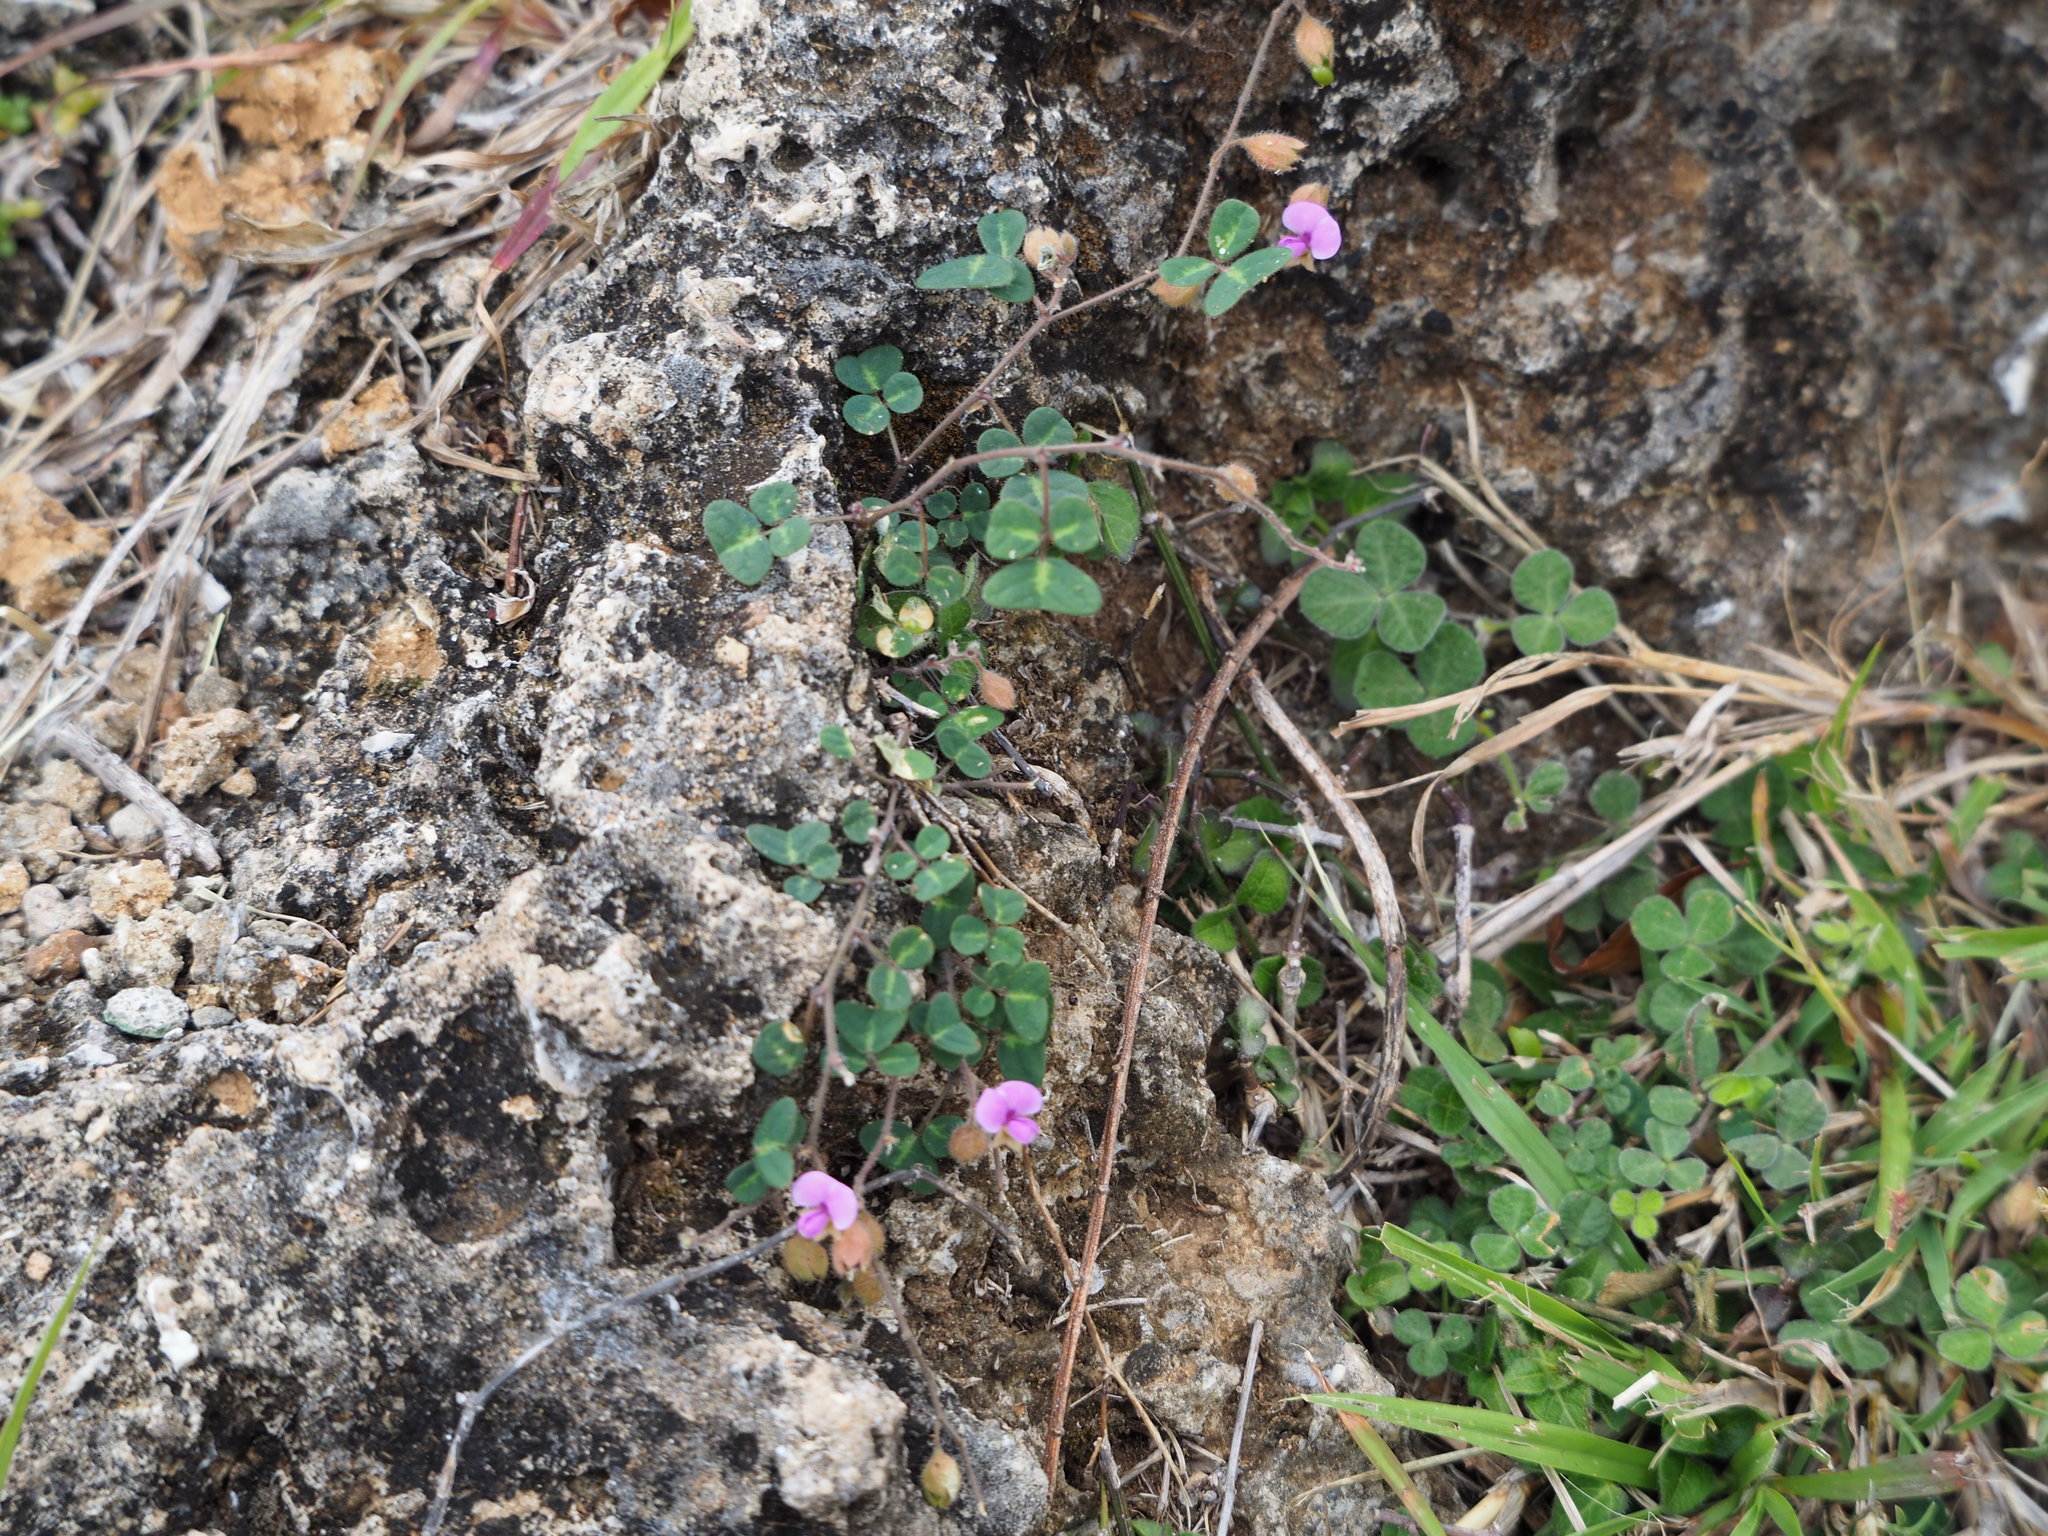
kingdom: Plantae
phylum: Tracheophyta
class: Magnoliopsida
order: Fabales
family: Fabaceae
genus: Christia
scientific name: Christia obcordata
